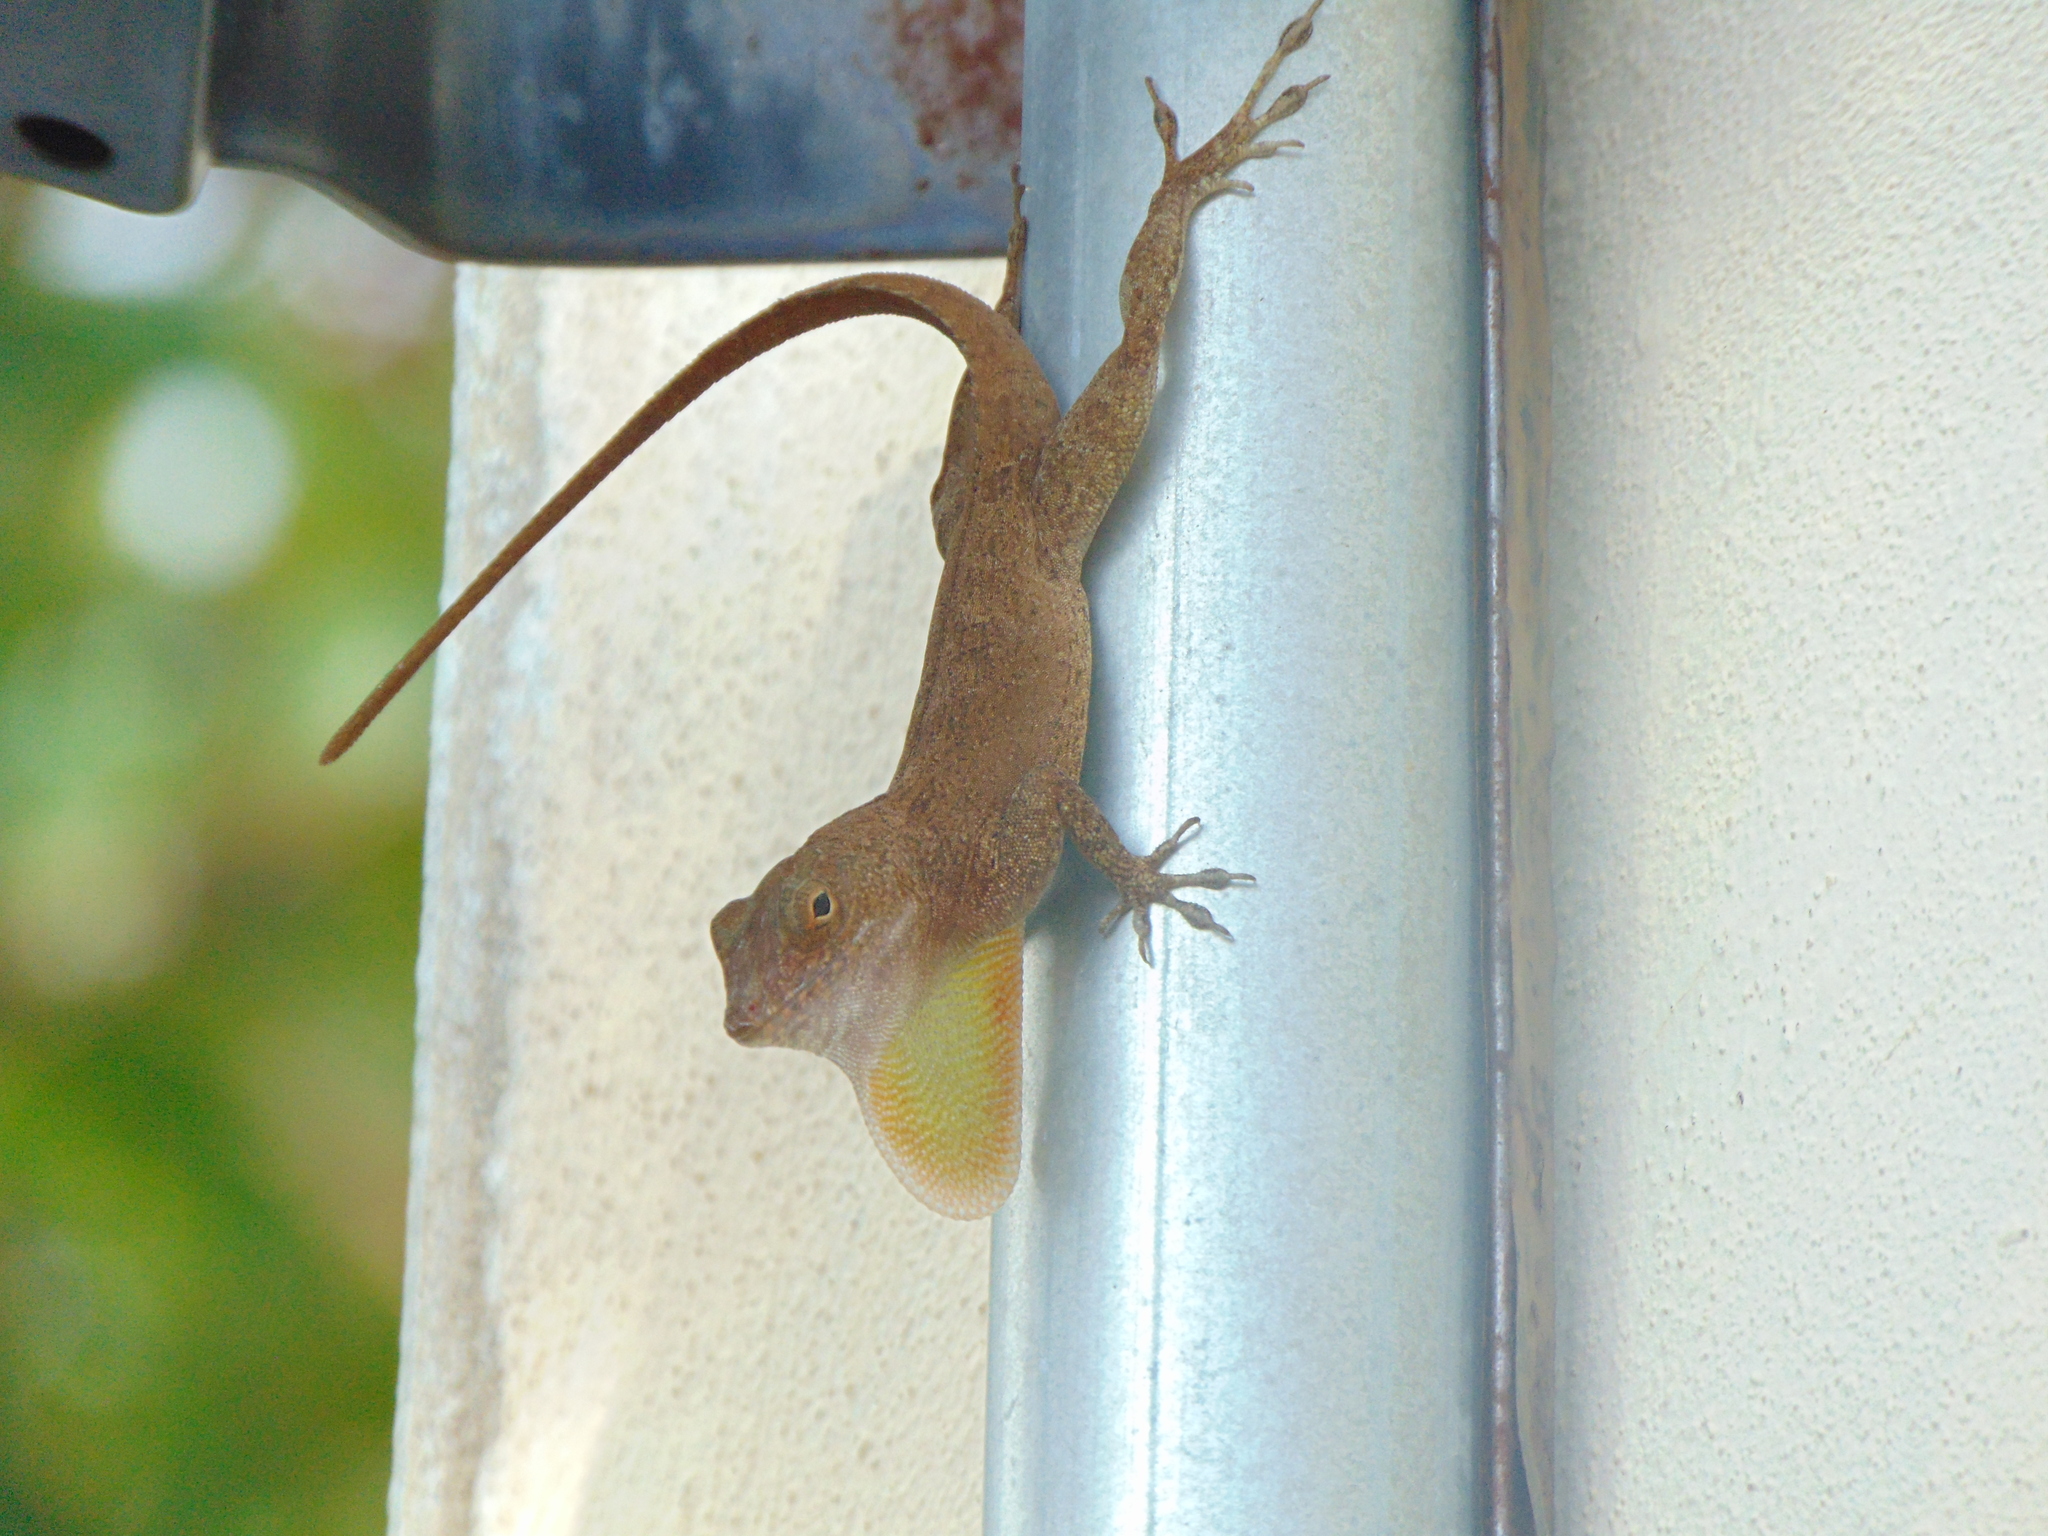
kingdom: Animalia
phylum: Chordata
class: Squamata
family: Dactyloidae
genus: Anolis
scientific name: Anolis cristatellus
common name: Crested anole
